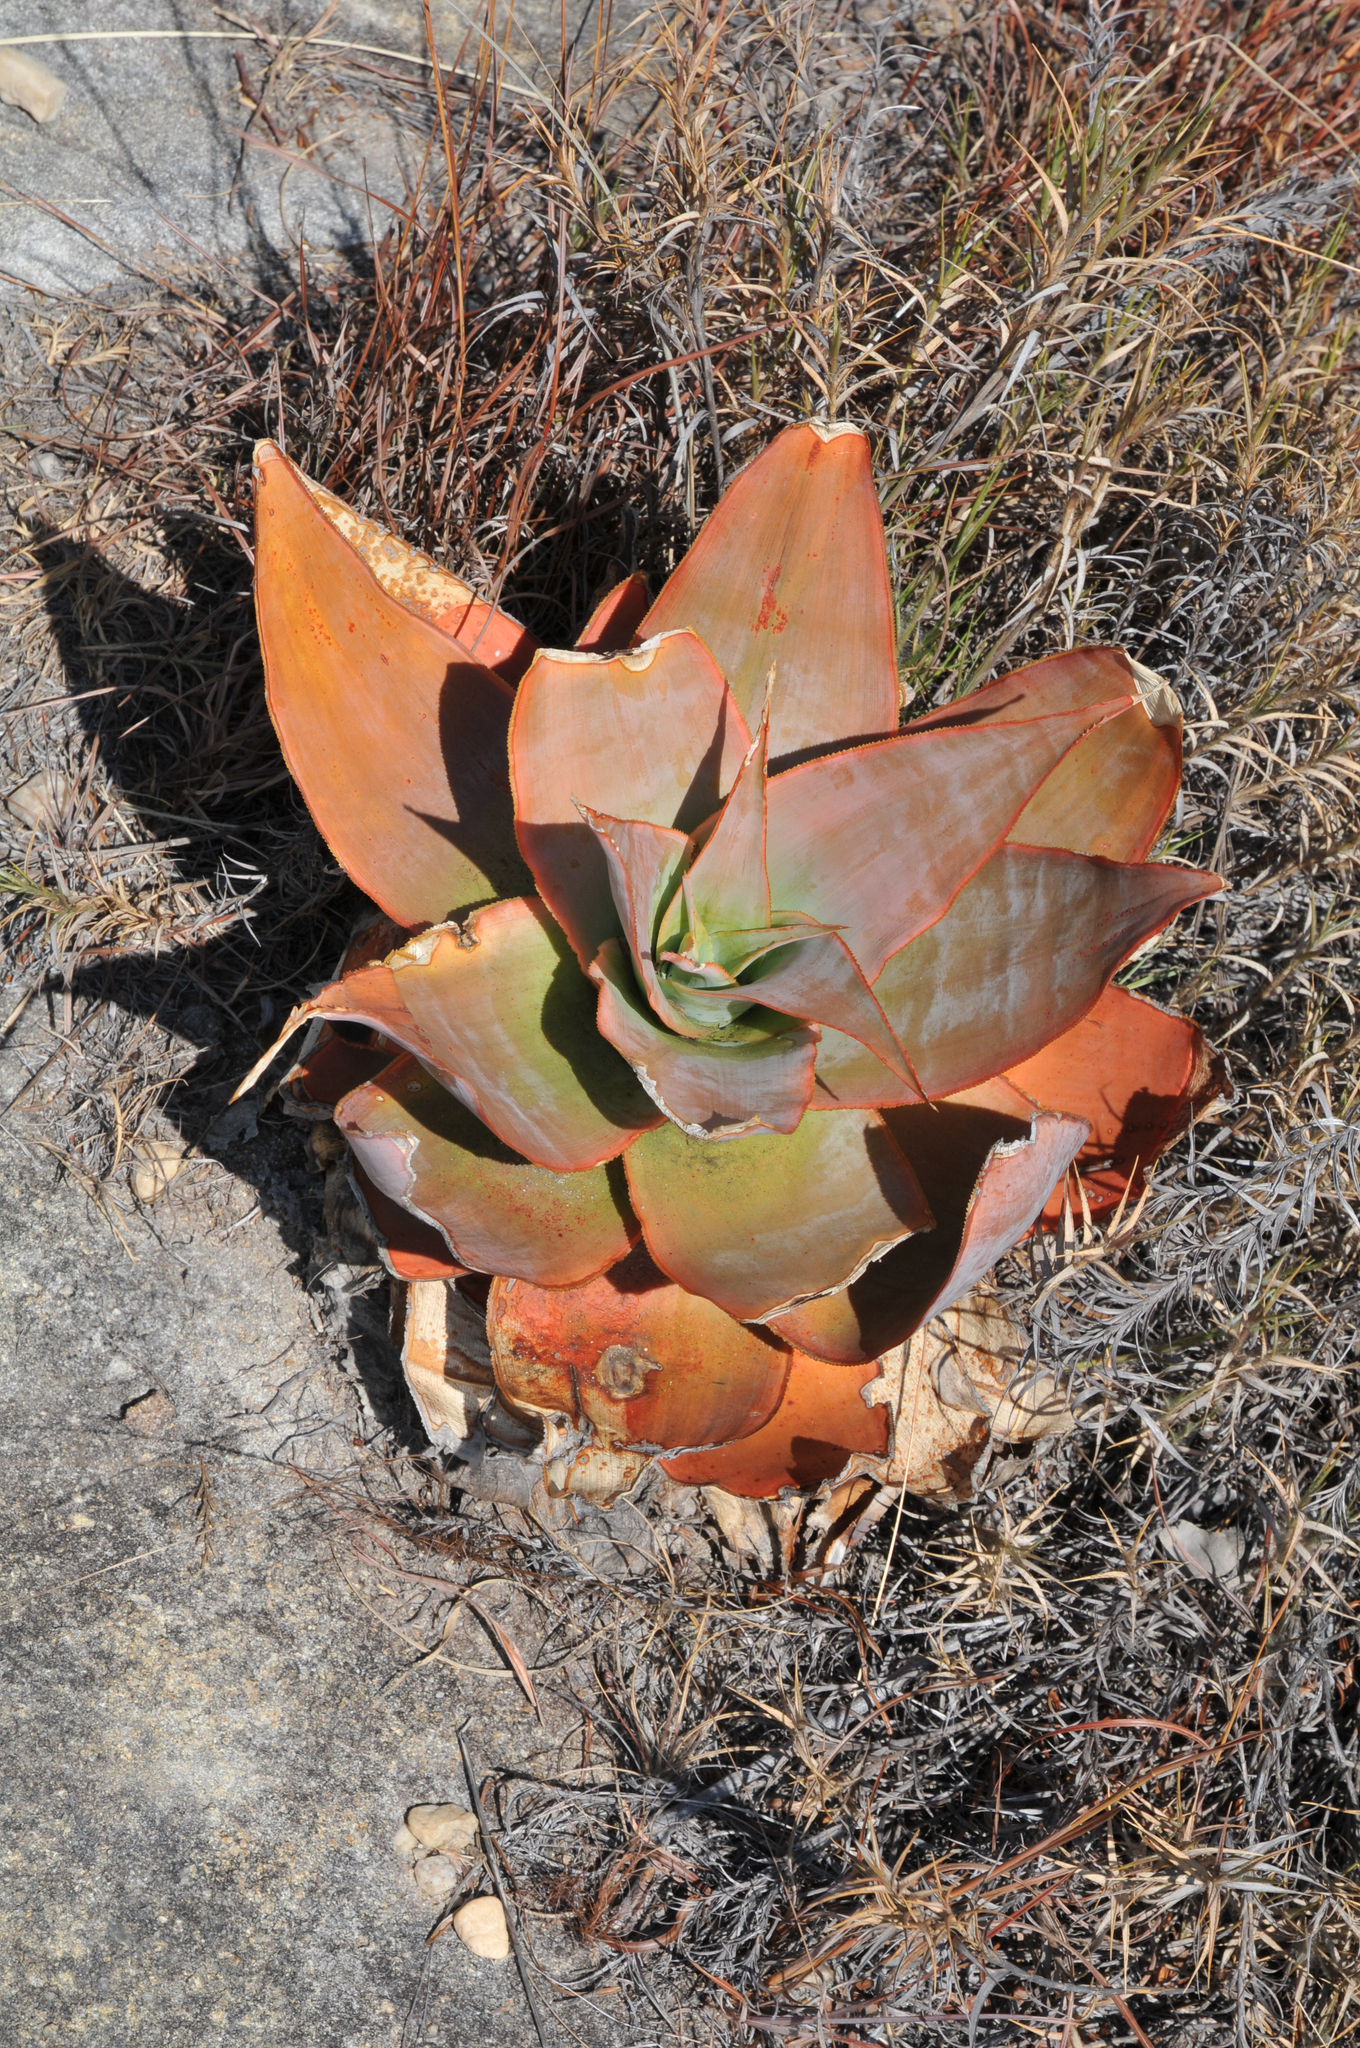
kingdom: Plantae
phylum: Tracheophyta
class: Liliopsida
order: Asparagales
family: Asphodelaceae
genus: Aloe
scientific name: Aloe imalotensis
